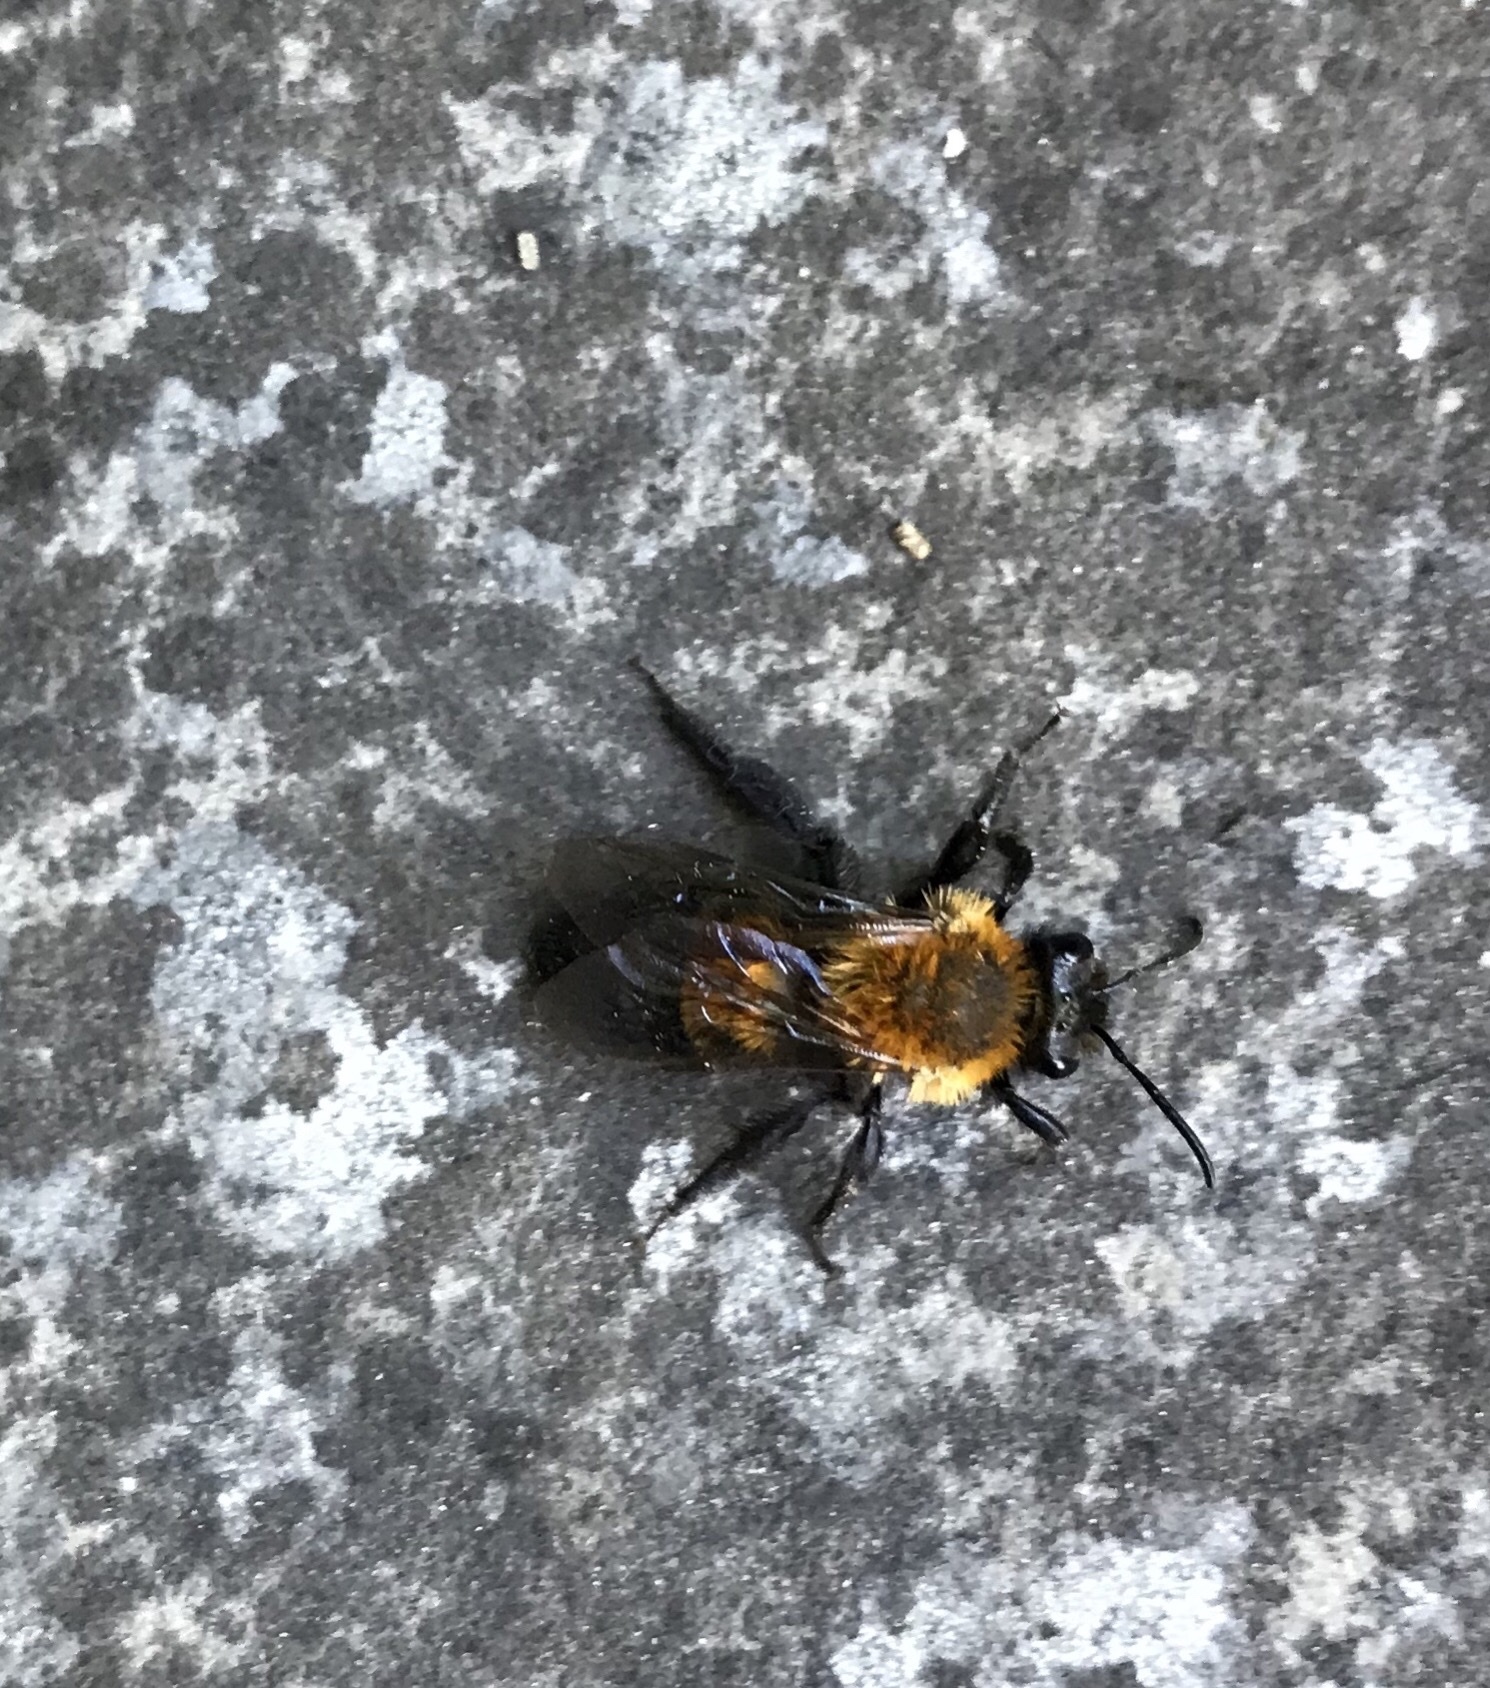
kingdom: Animalia
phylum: Arthropoda
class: Insecta
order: Hymenoptera
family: Andrenidae
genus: Andrena
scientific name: Andrena milwaukeensis
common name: Milwaukee mining bee
